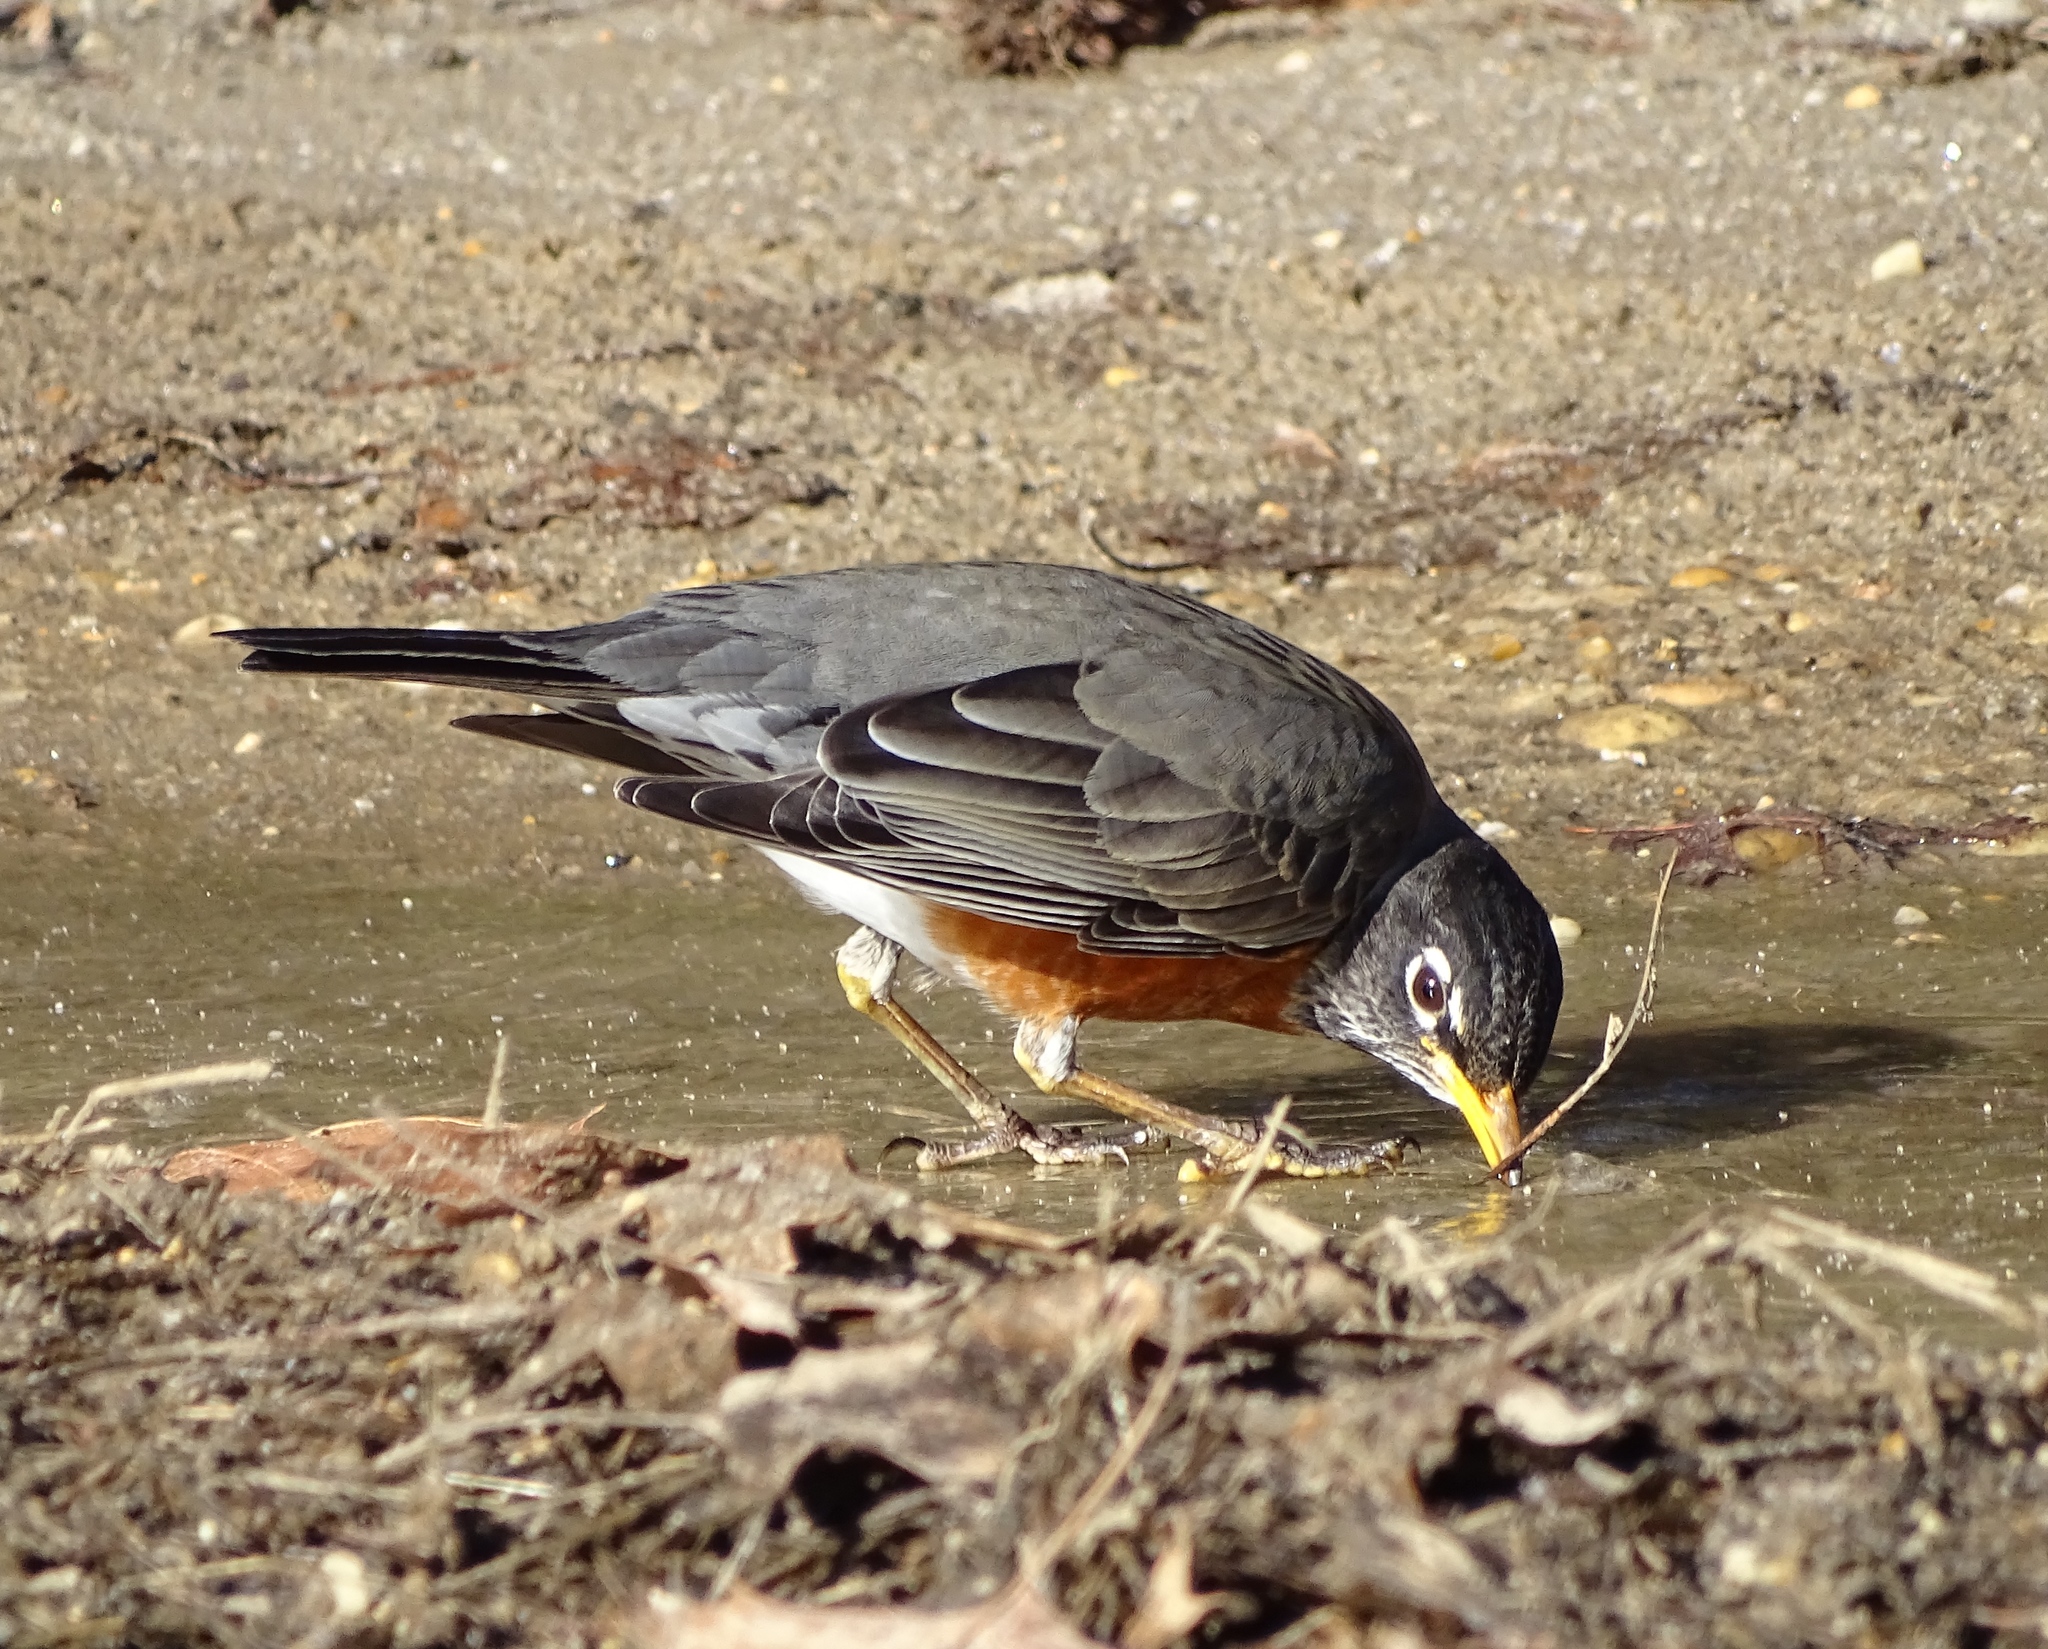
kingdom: Animalia
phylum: Chordata
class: Aves
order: Passeriformes
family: Turdidae
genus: Turdus
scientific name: Turdus migratorius
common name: American robin
